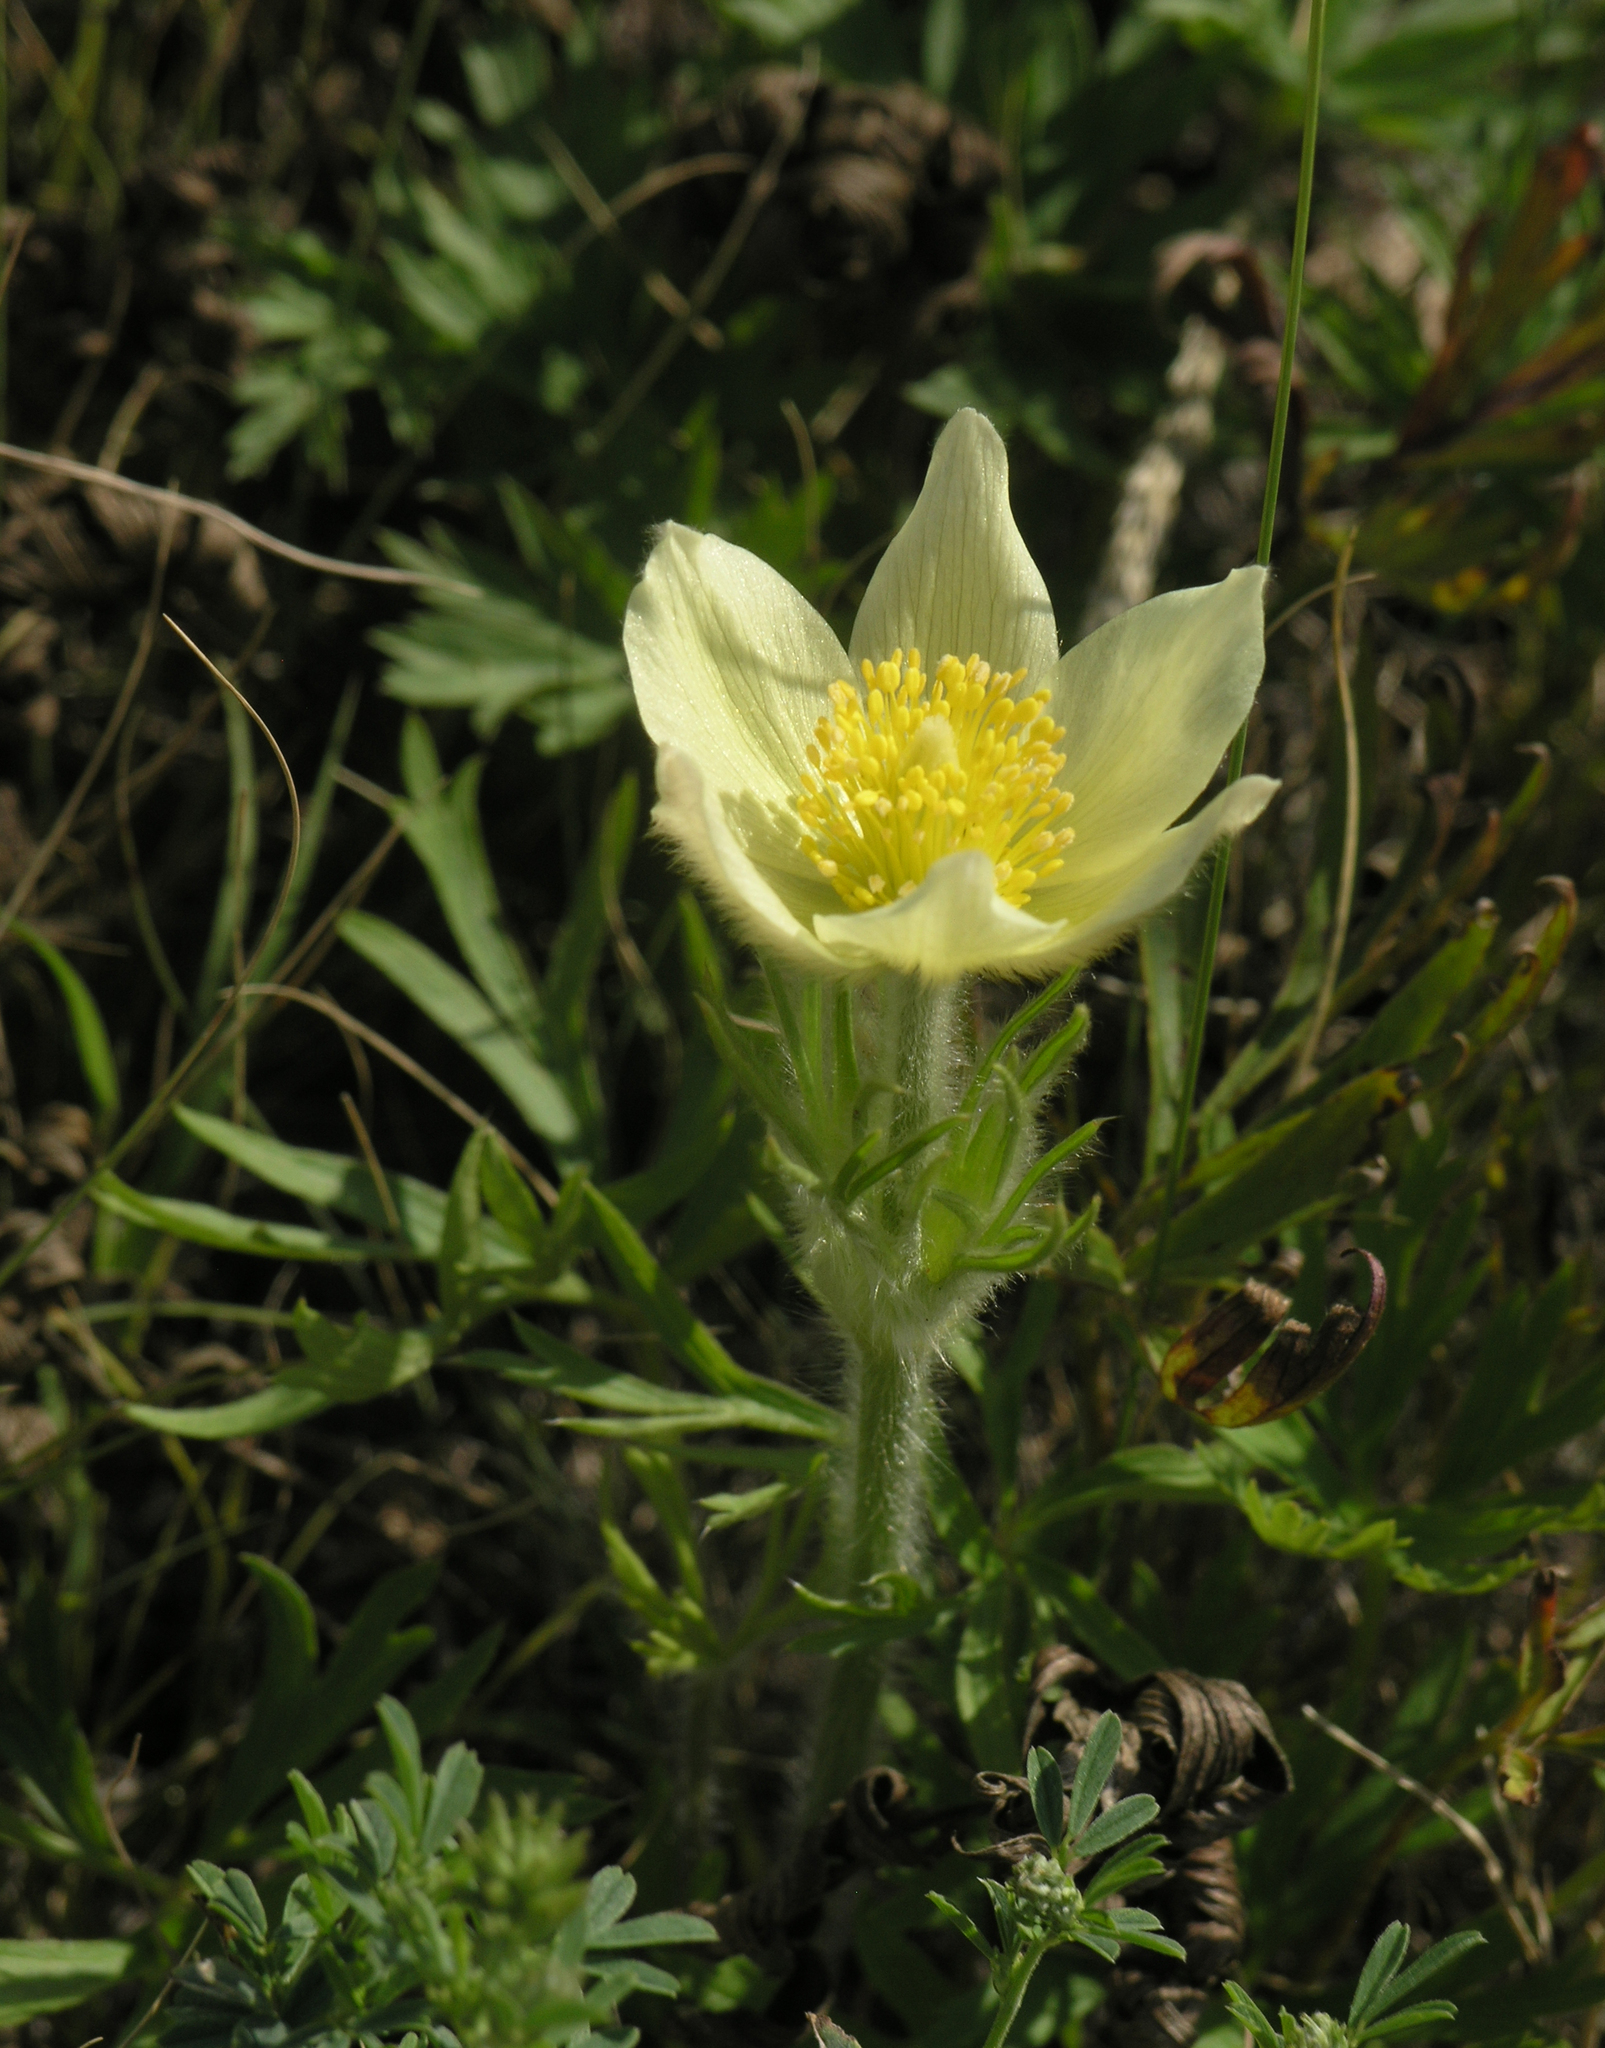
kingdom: Plantae
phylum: Tracheophyta
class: Magnoliopsida
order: Ranunculales
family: Ranunculaceae
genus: Pulsatilla
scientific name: Pulsatilla patens
